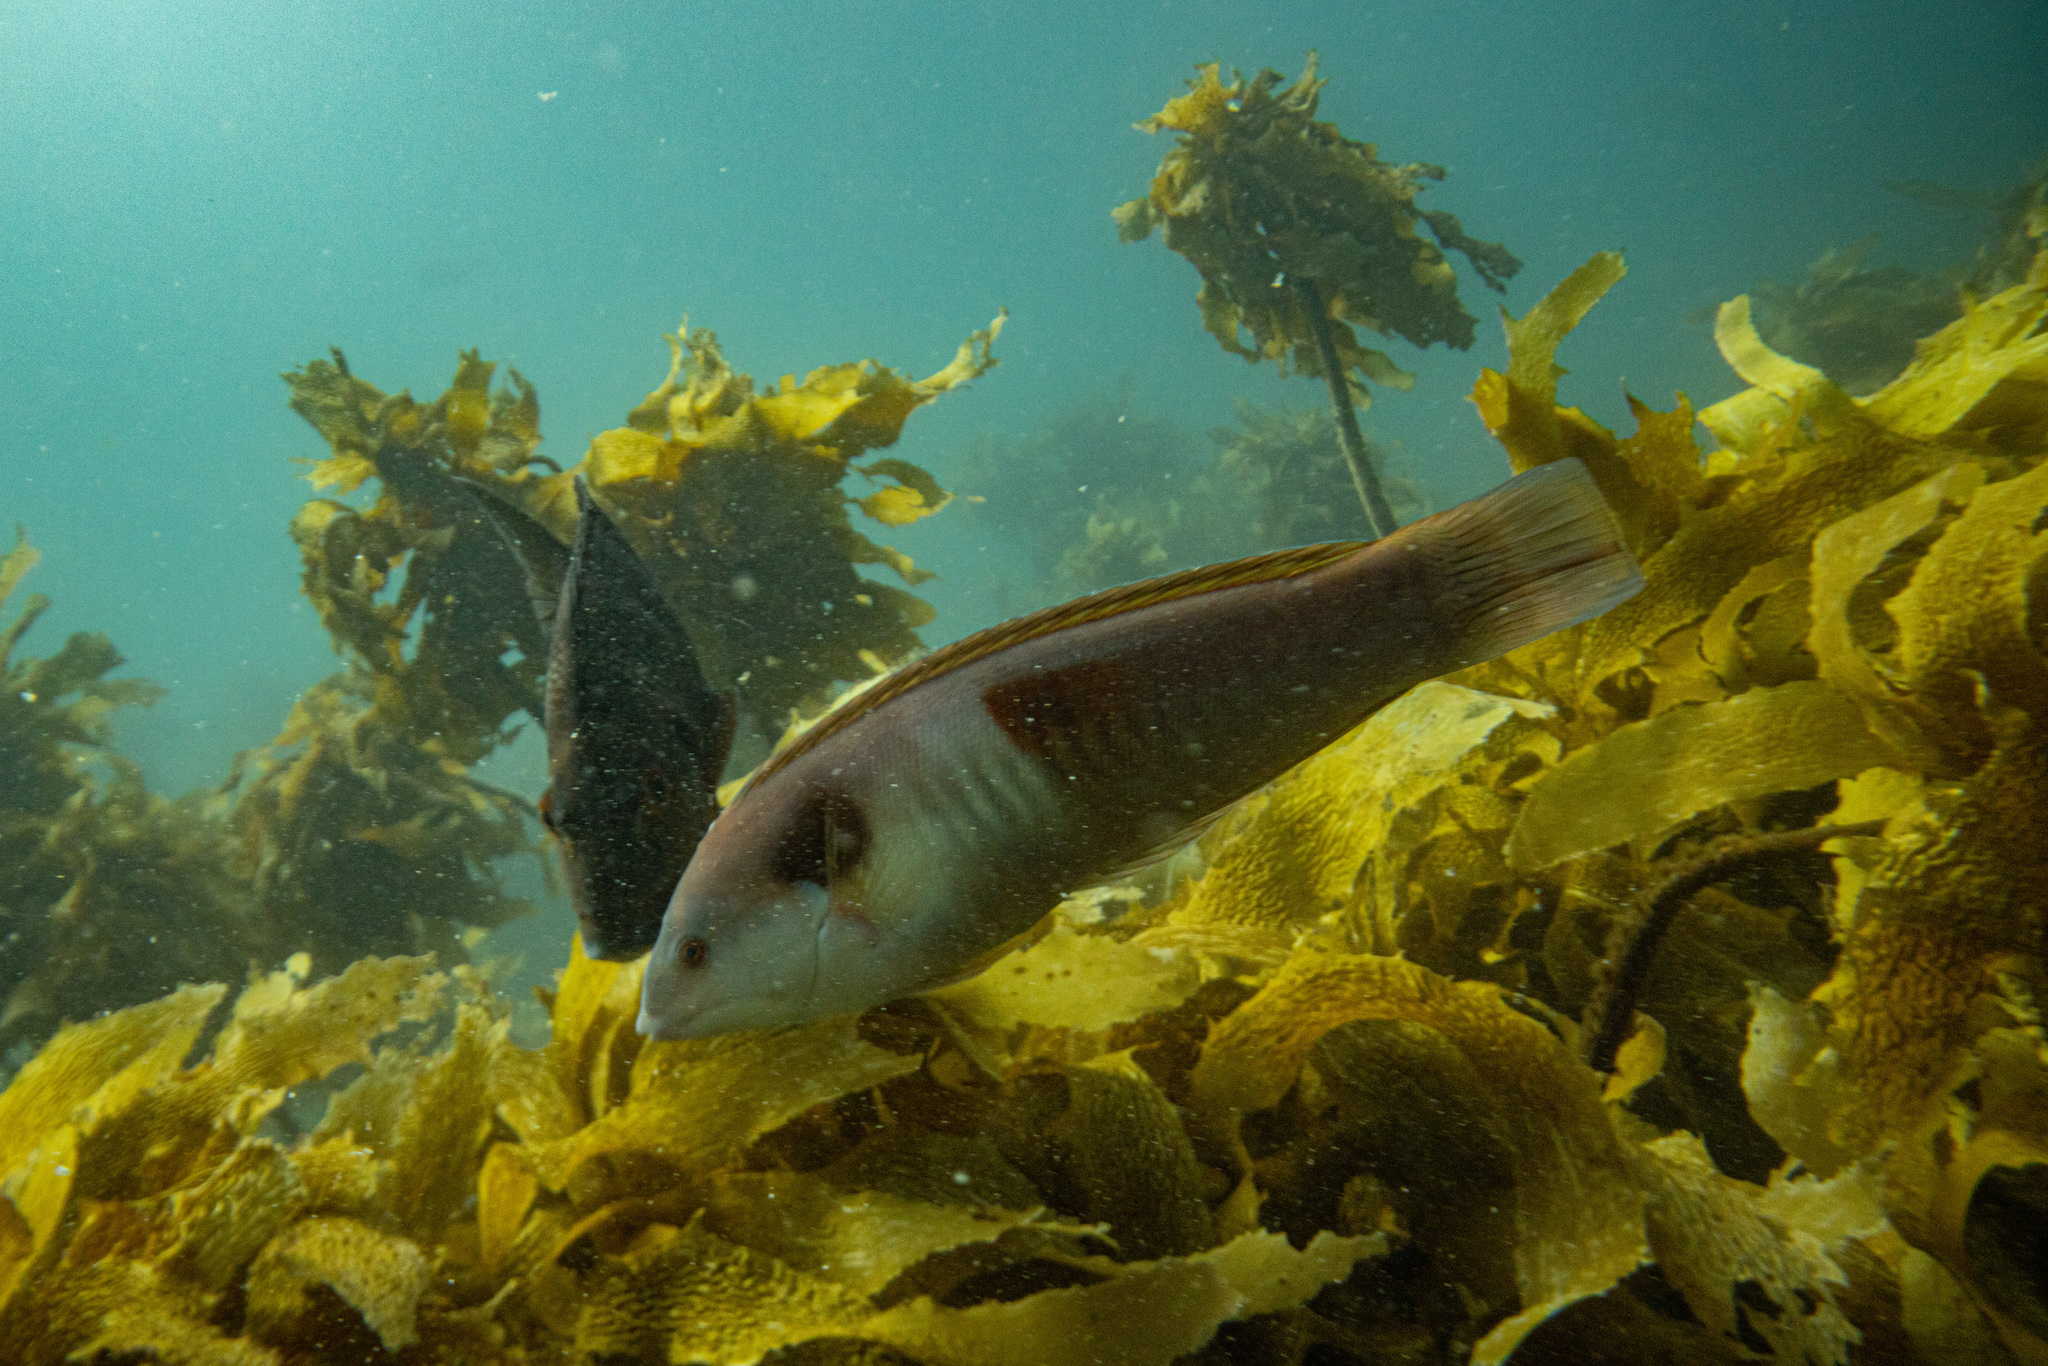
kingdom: Animalia
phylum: Chordata
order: Perciformes
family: Labridae
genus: Coris
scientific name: Coris sandeyeri
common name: Sandager's wrasse
